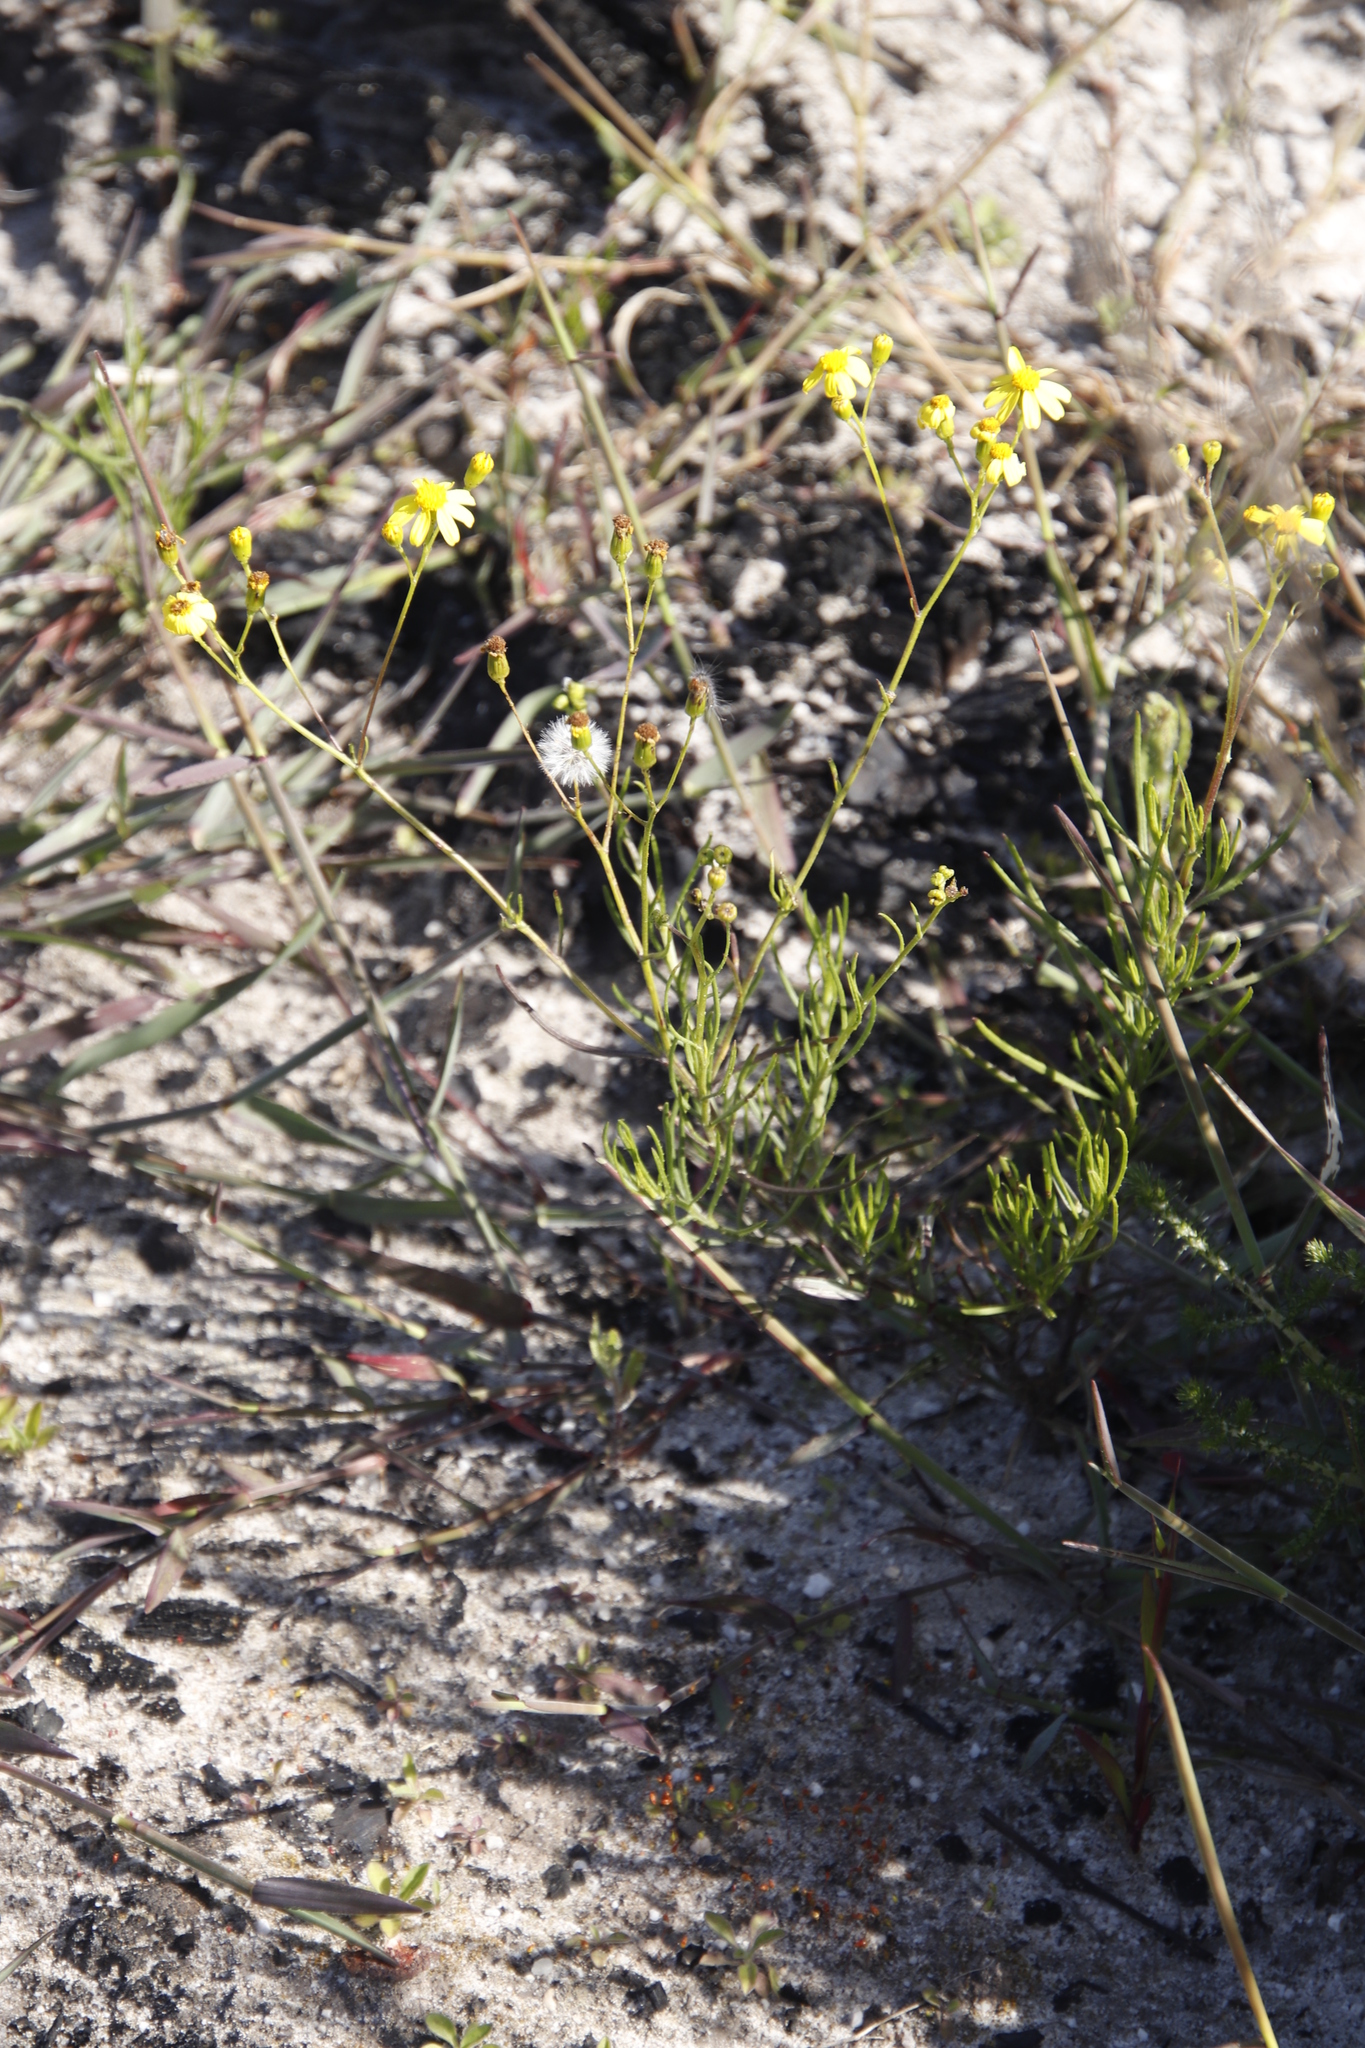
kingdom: Plantae
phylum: Tracheophyta
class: Magnoliopsida
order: Asterales
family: Asteraceae
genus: Senecio
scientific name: Senecio burchellii
